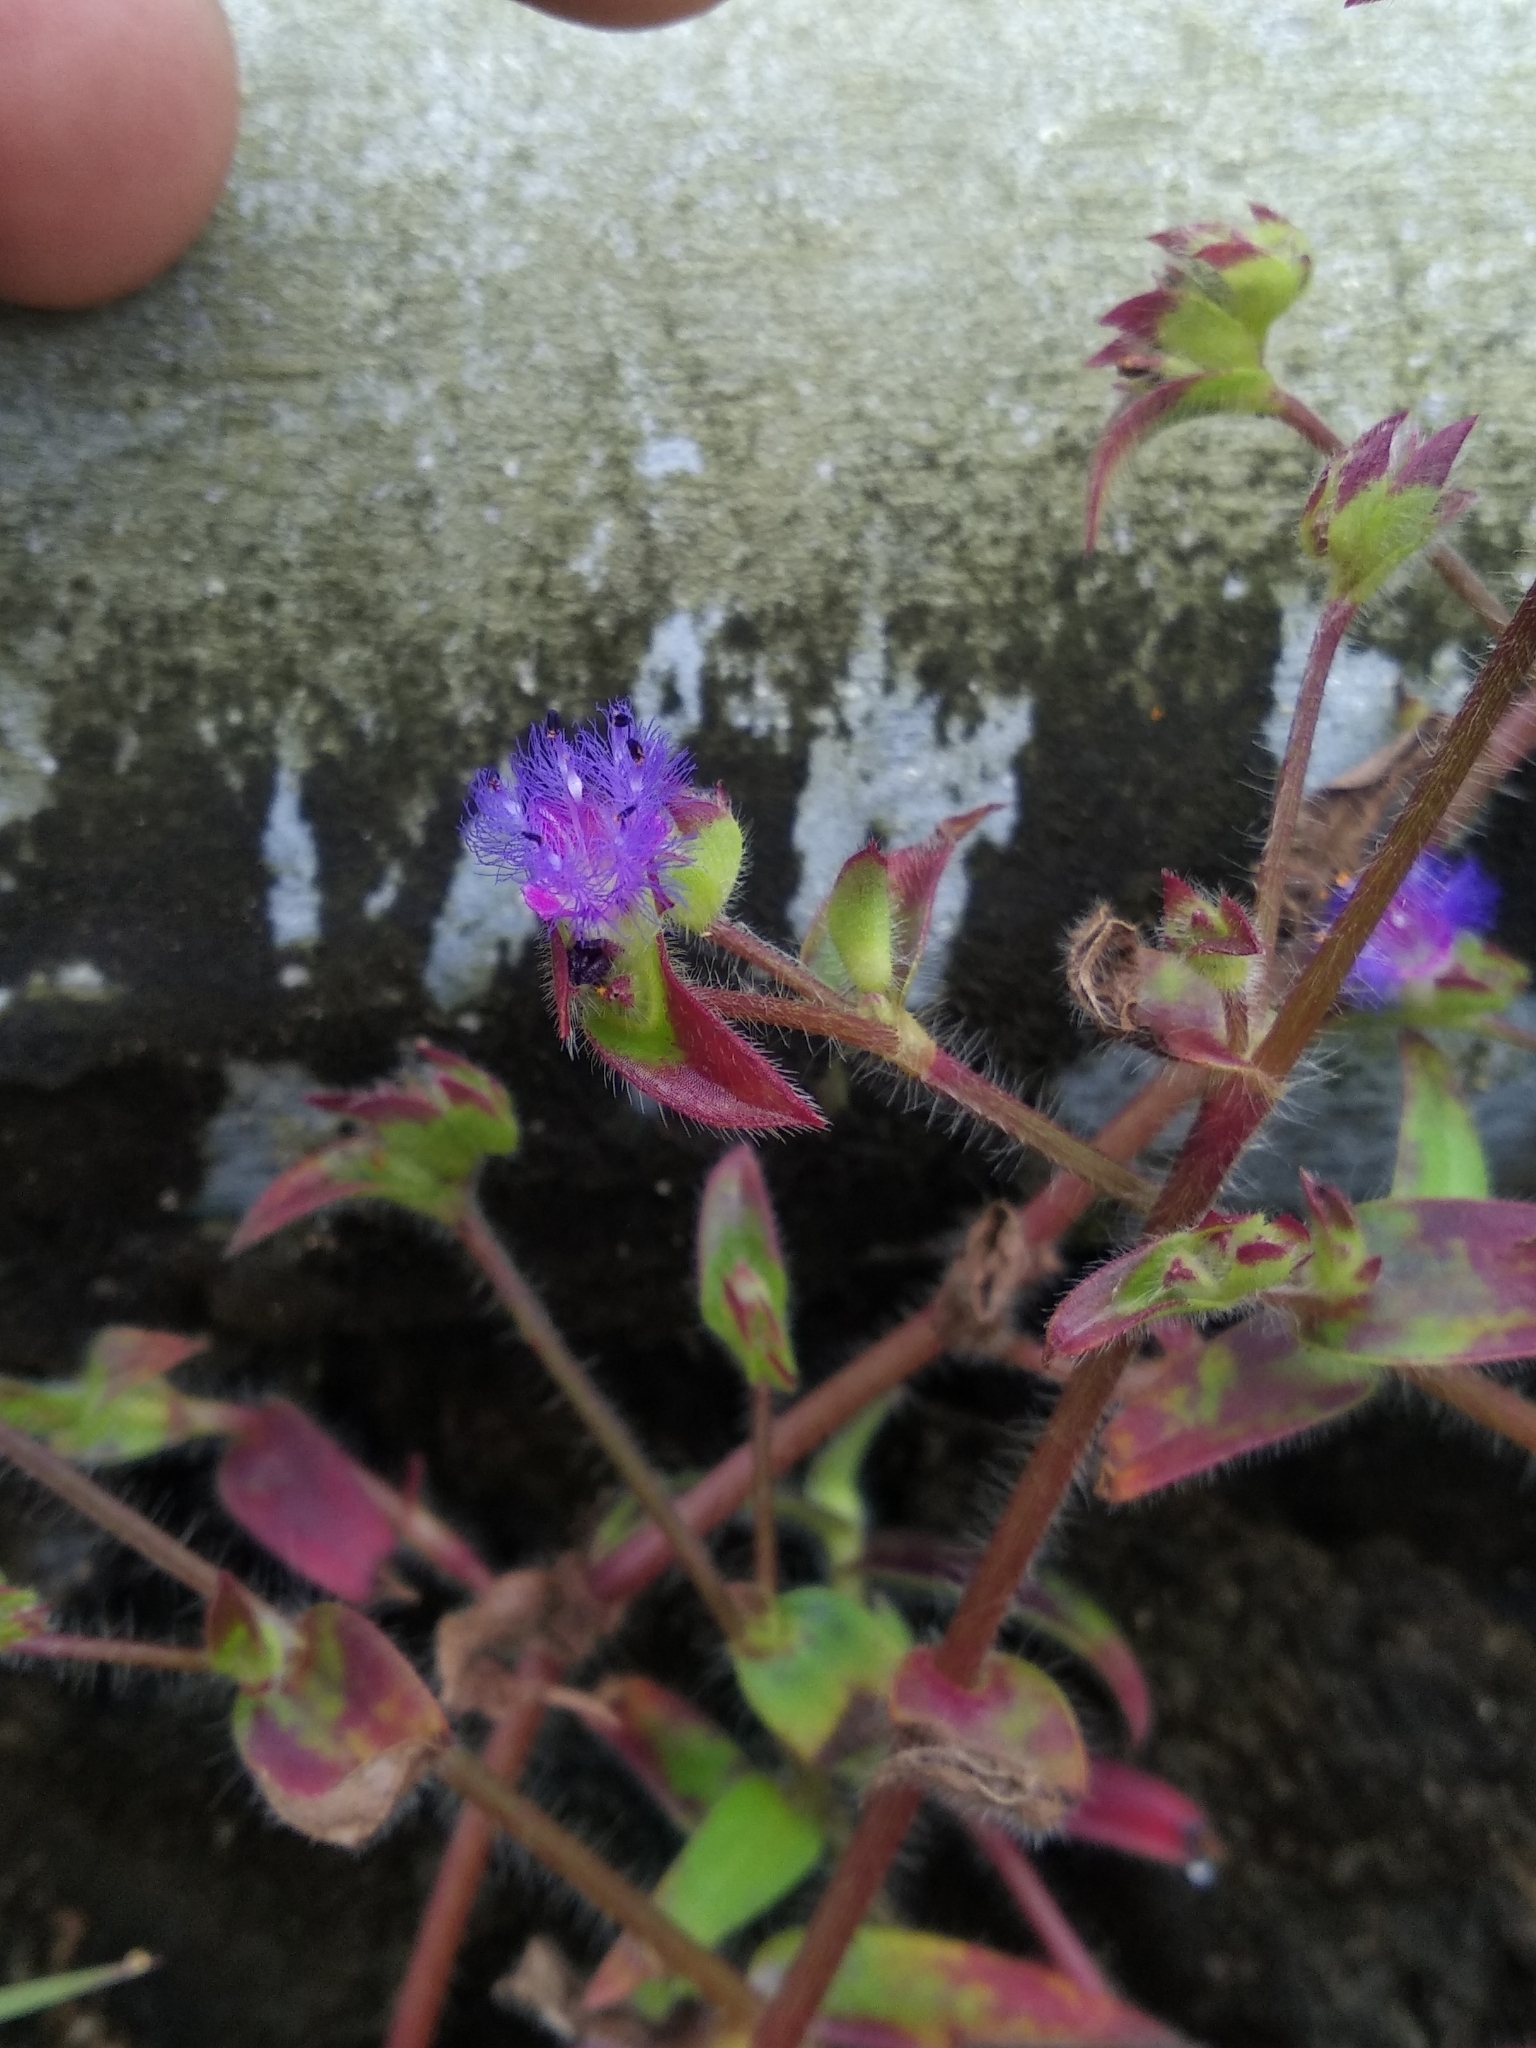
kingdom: Plantae
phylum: Tracheophyta
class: Liliopsida
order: Commelinales
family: Commelinaceae
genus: Cyanotis
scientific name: Cyanotis arcotensis
